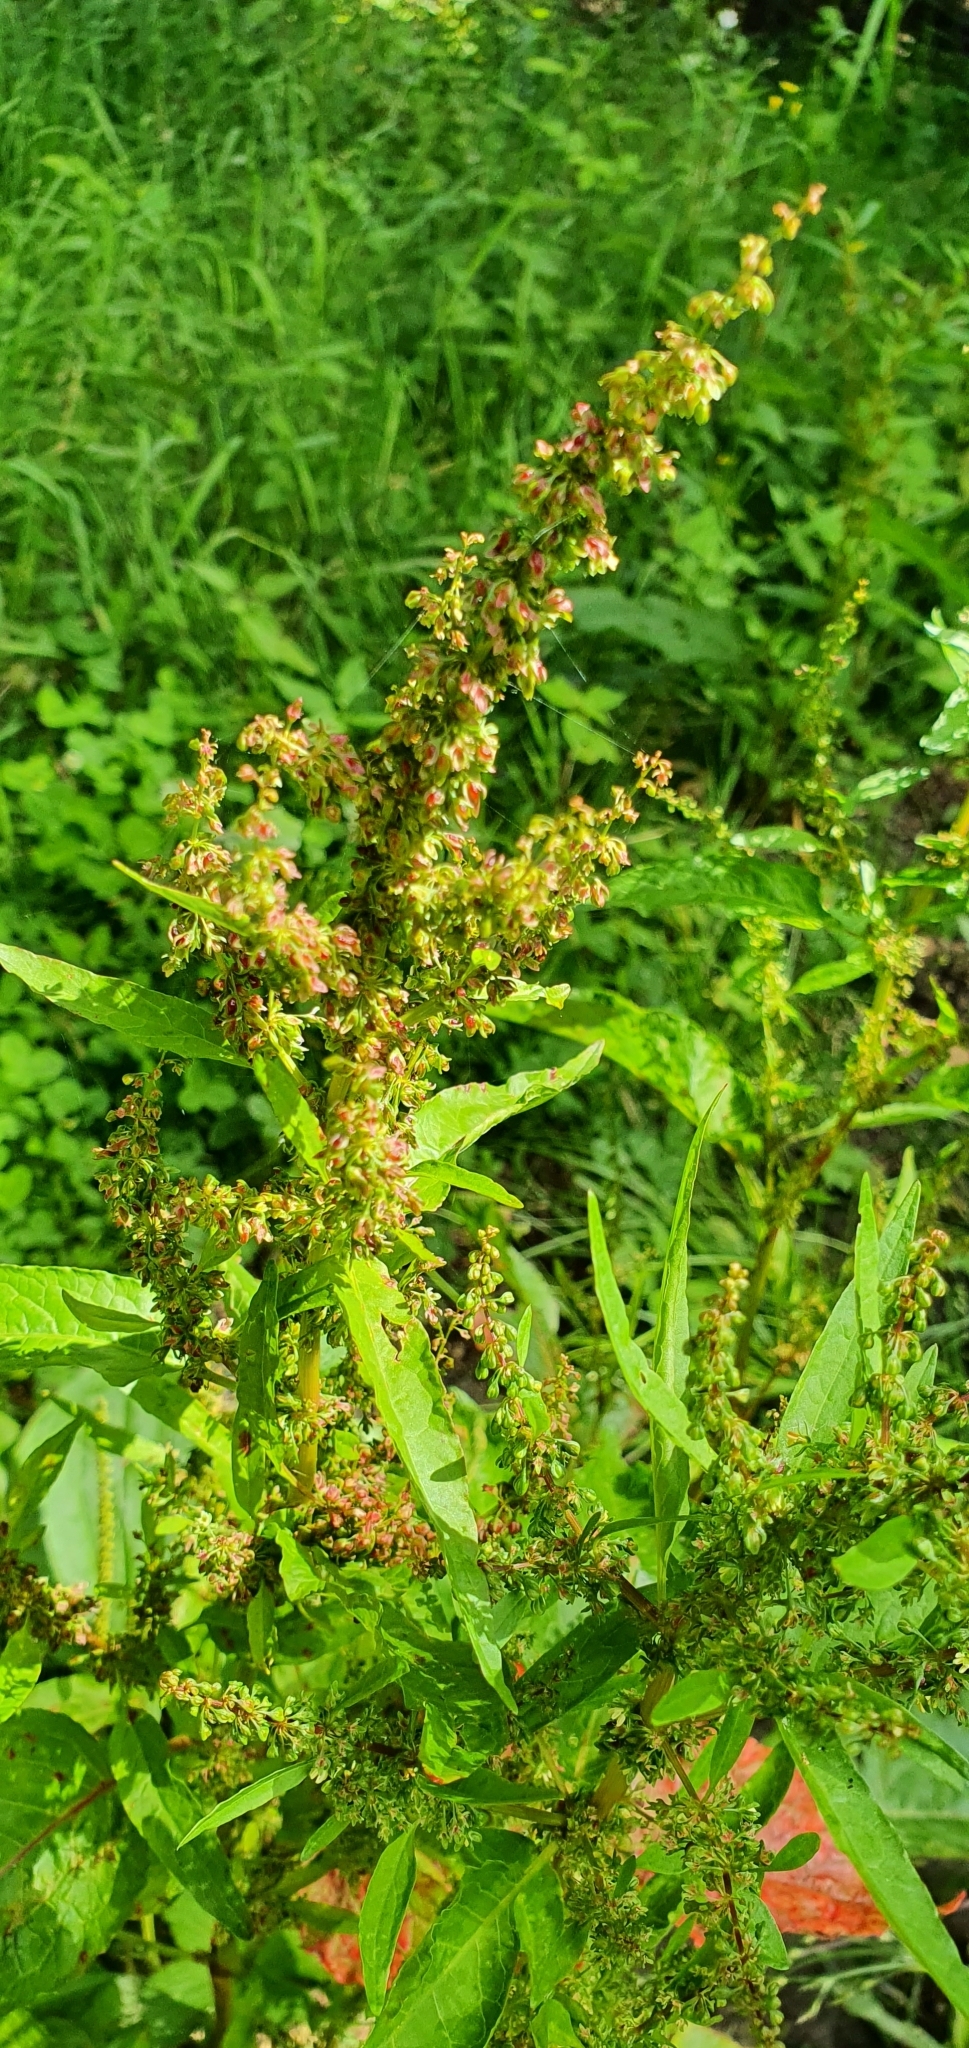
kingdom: Plantae
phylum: Tracheophyta
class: Magnoliopsida
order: Caryophyllales
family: Polygonaceae
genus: Rumex
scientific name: Rumex crispus
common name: Curled dock
